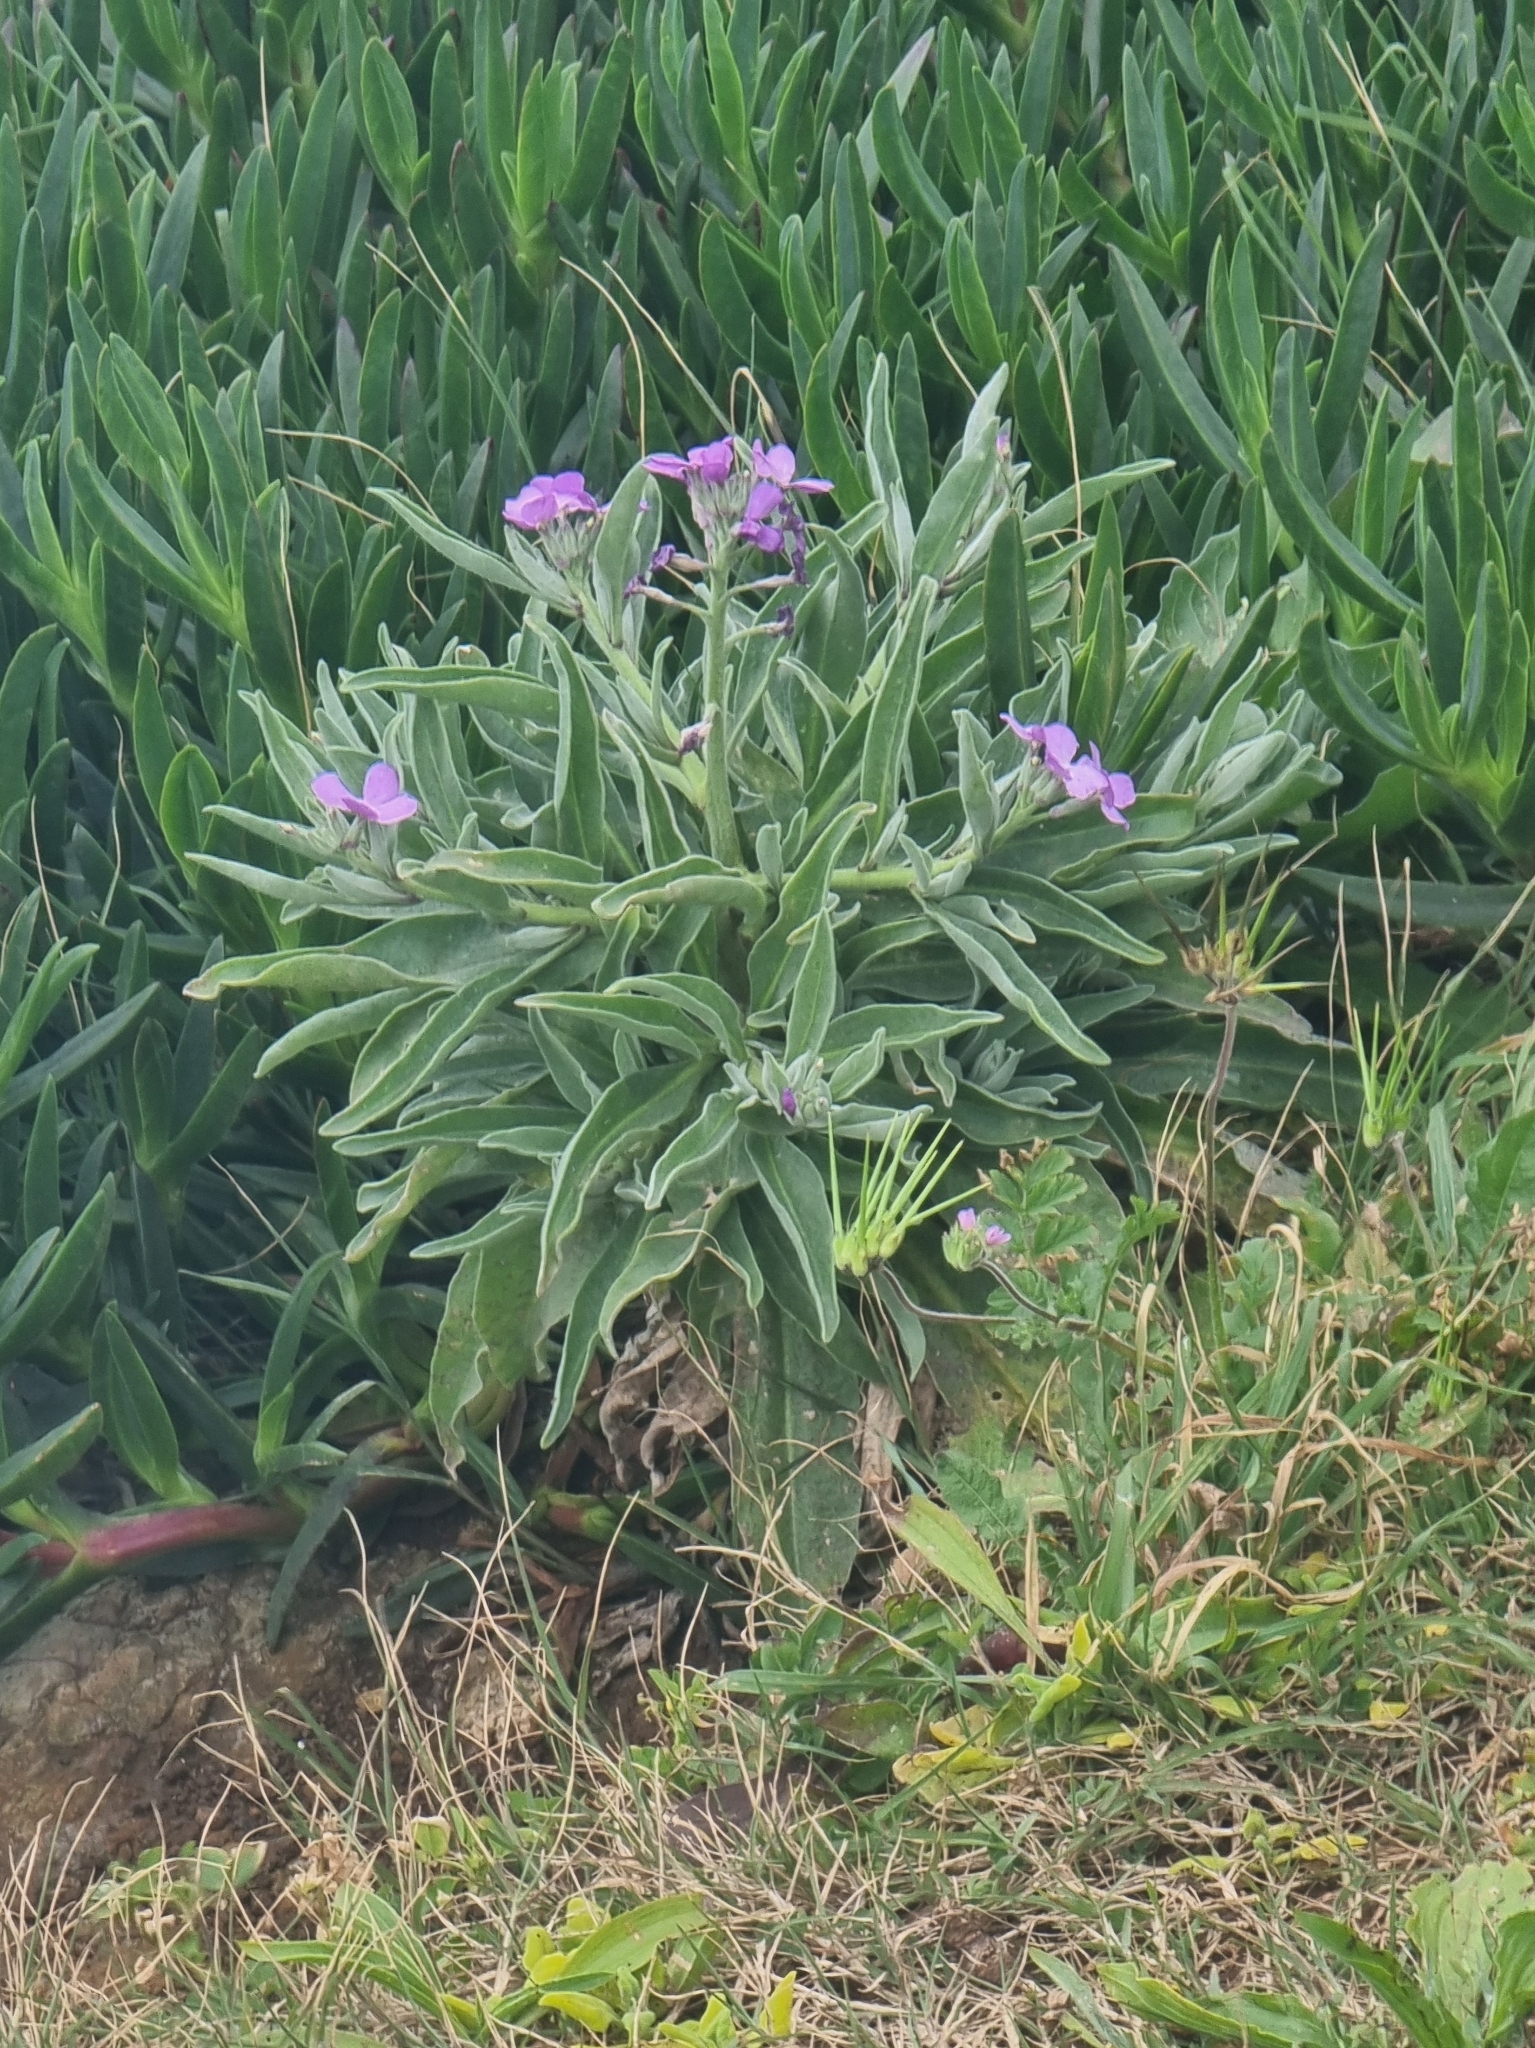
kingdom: Plantae
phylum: Tracheophyta
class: Magnoliopsida
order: Brassicales
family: Brassicaceae
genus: Matthiola
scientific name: Matthiola maderensis
